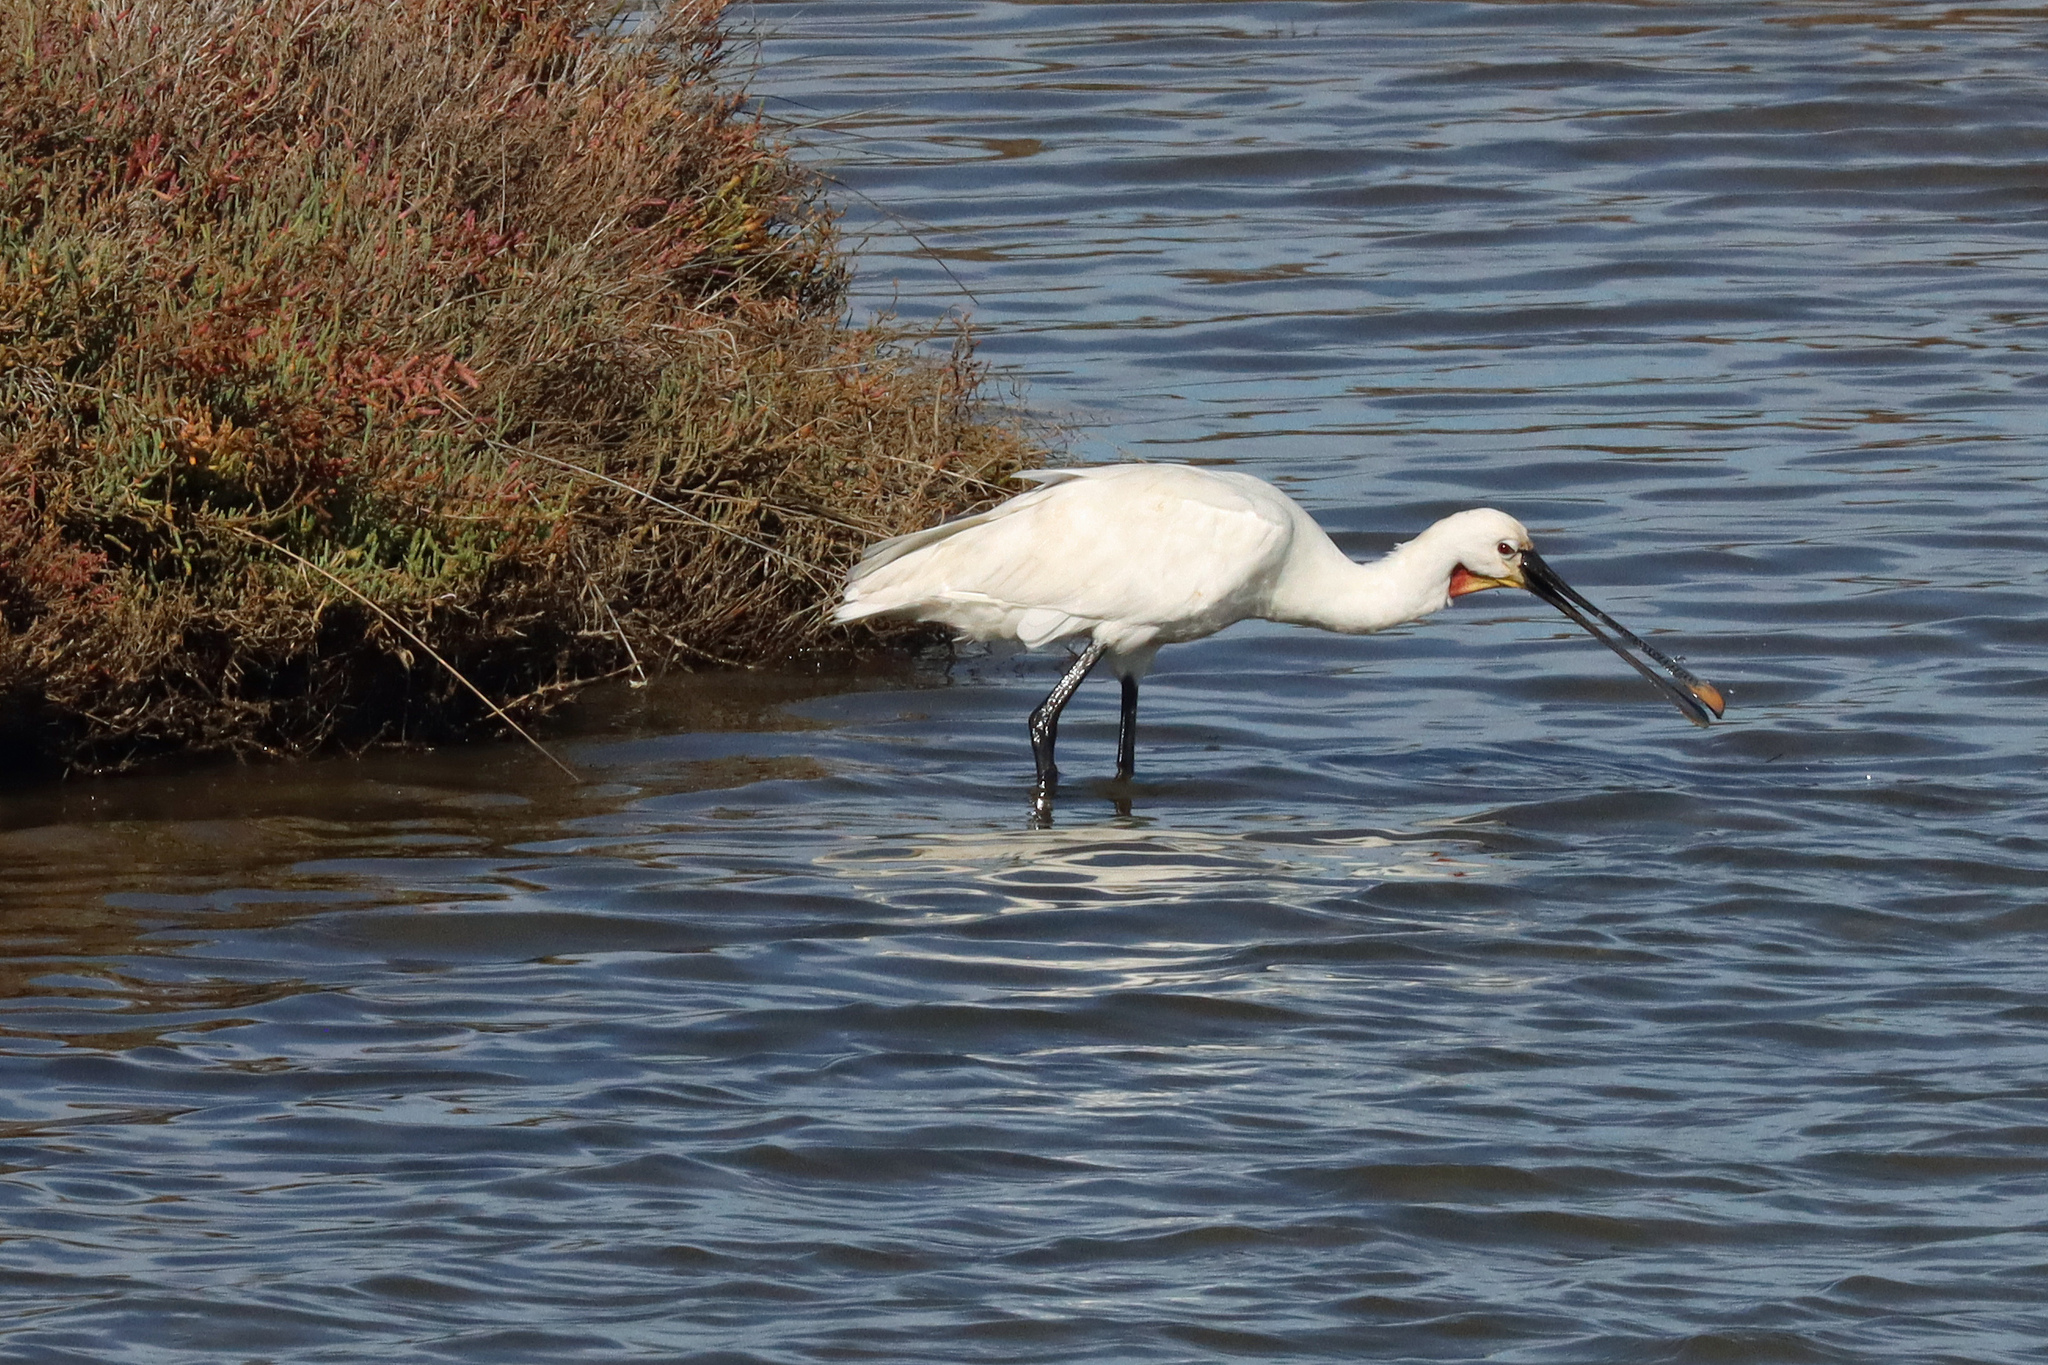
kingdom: Animalia
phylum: Chordata
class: Aves
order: Pelecaniformes
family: Threskiornithidae
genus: Platalea
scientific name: Platalea leucorodia
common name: Eurasian spoonbill
